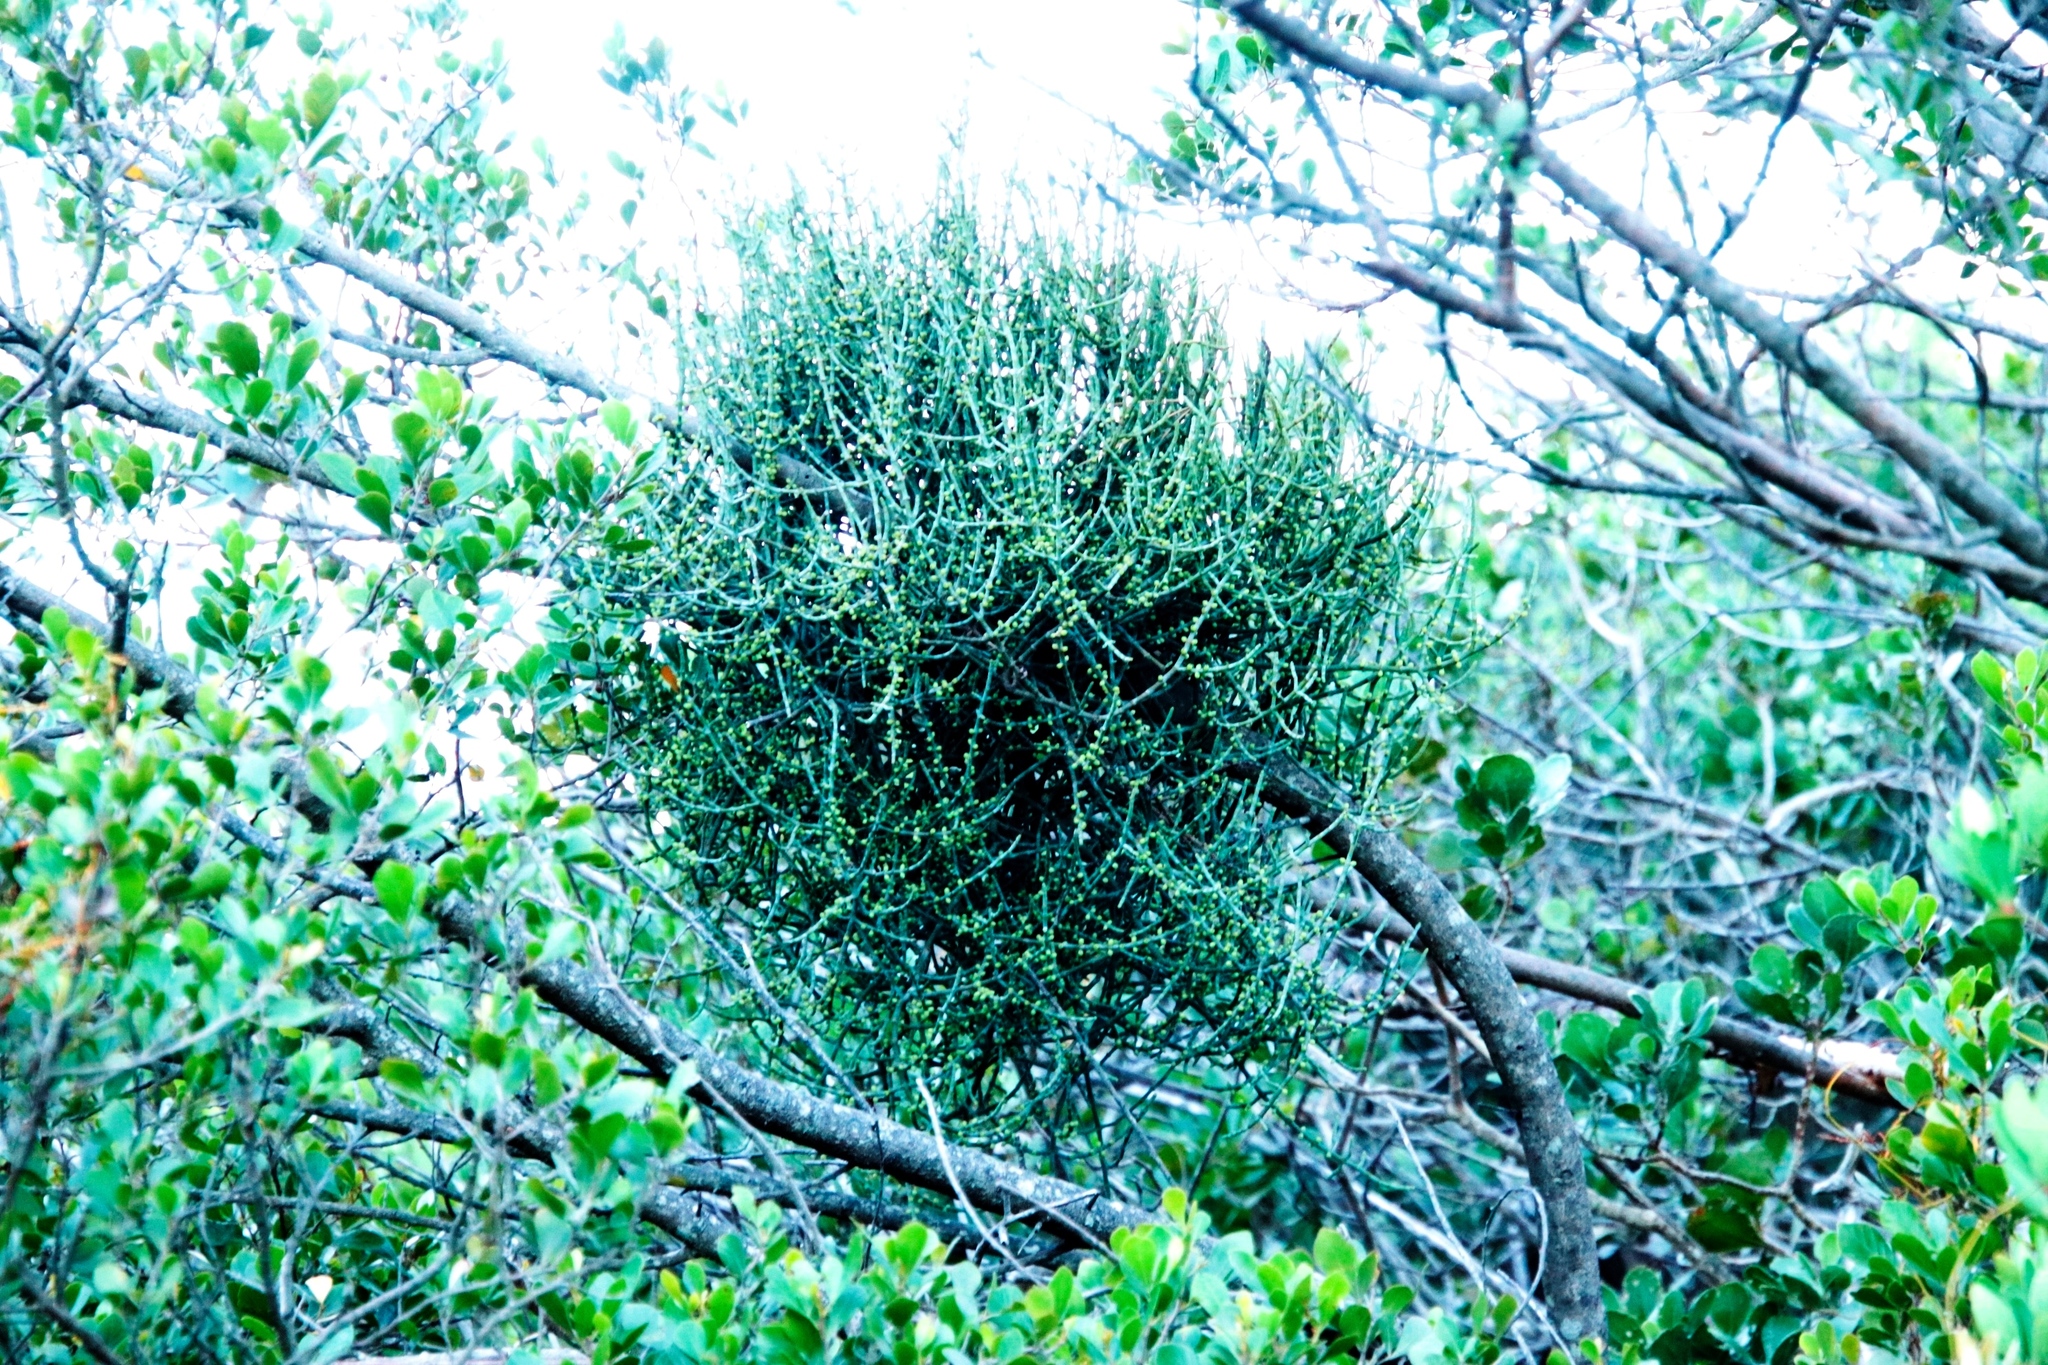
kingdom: Plantae
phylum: Tracheophyta
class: Magnoliopsida
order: Santalales
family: Viscaceae
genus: Viscum
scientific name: Viscum capense
